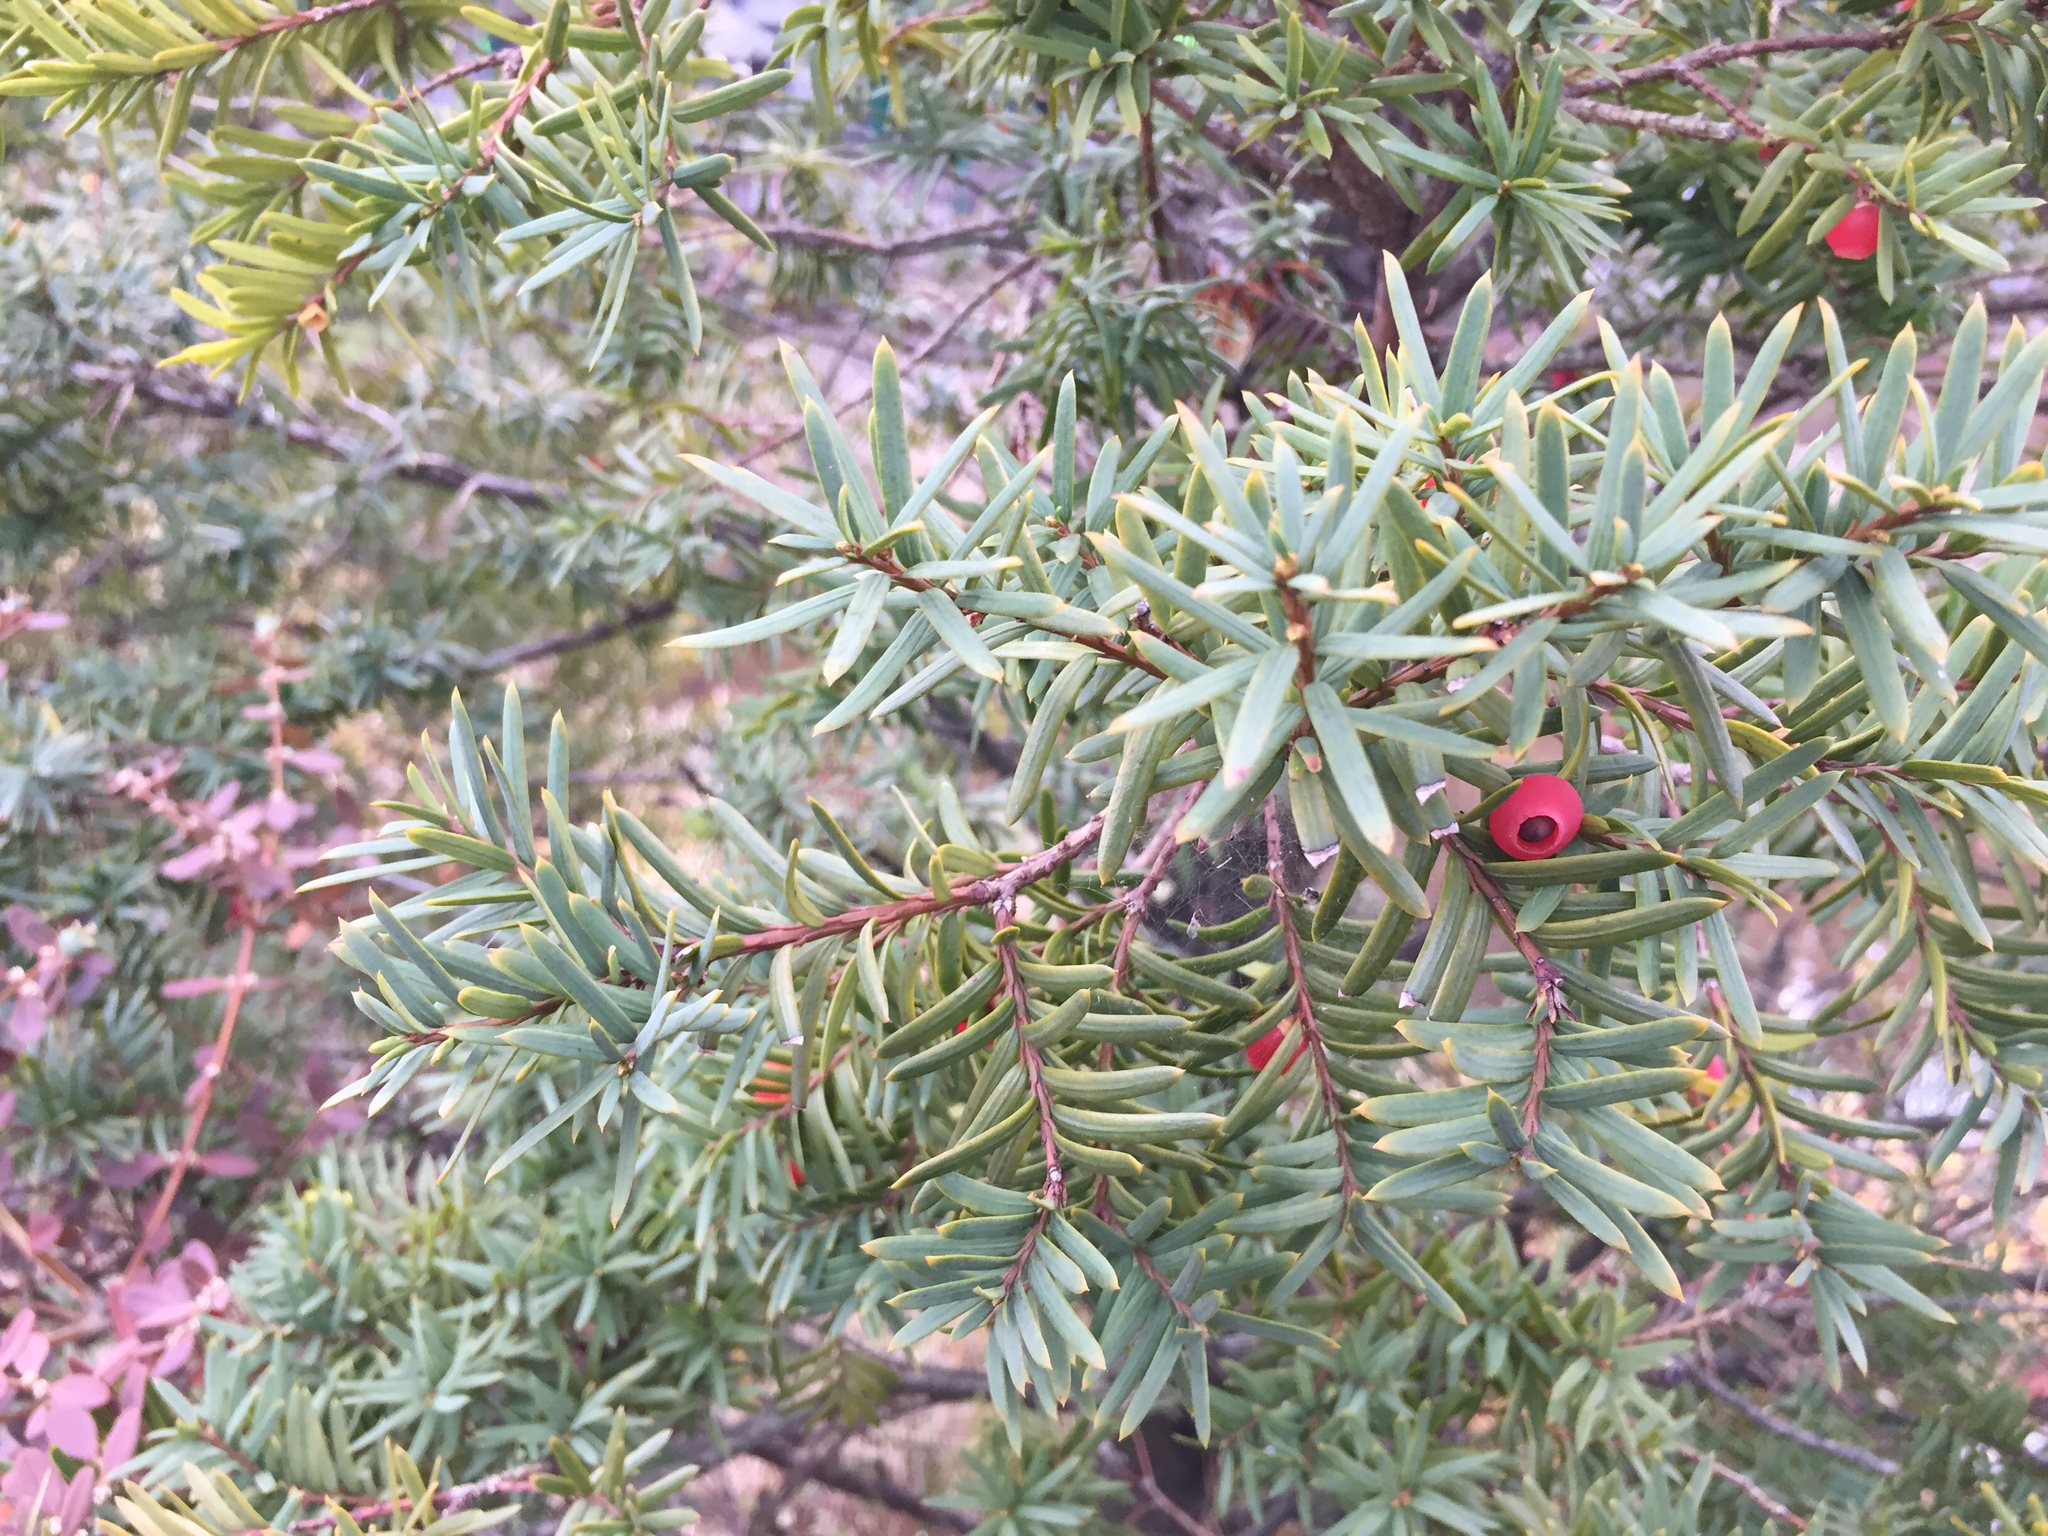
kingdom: Plantae
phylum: Tracheophyta
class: Pinopsida
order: Pinales
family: Taxaceae
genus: Taxus
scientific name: Taxus cuspidata
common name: Japanese yew
